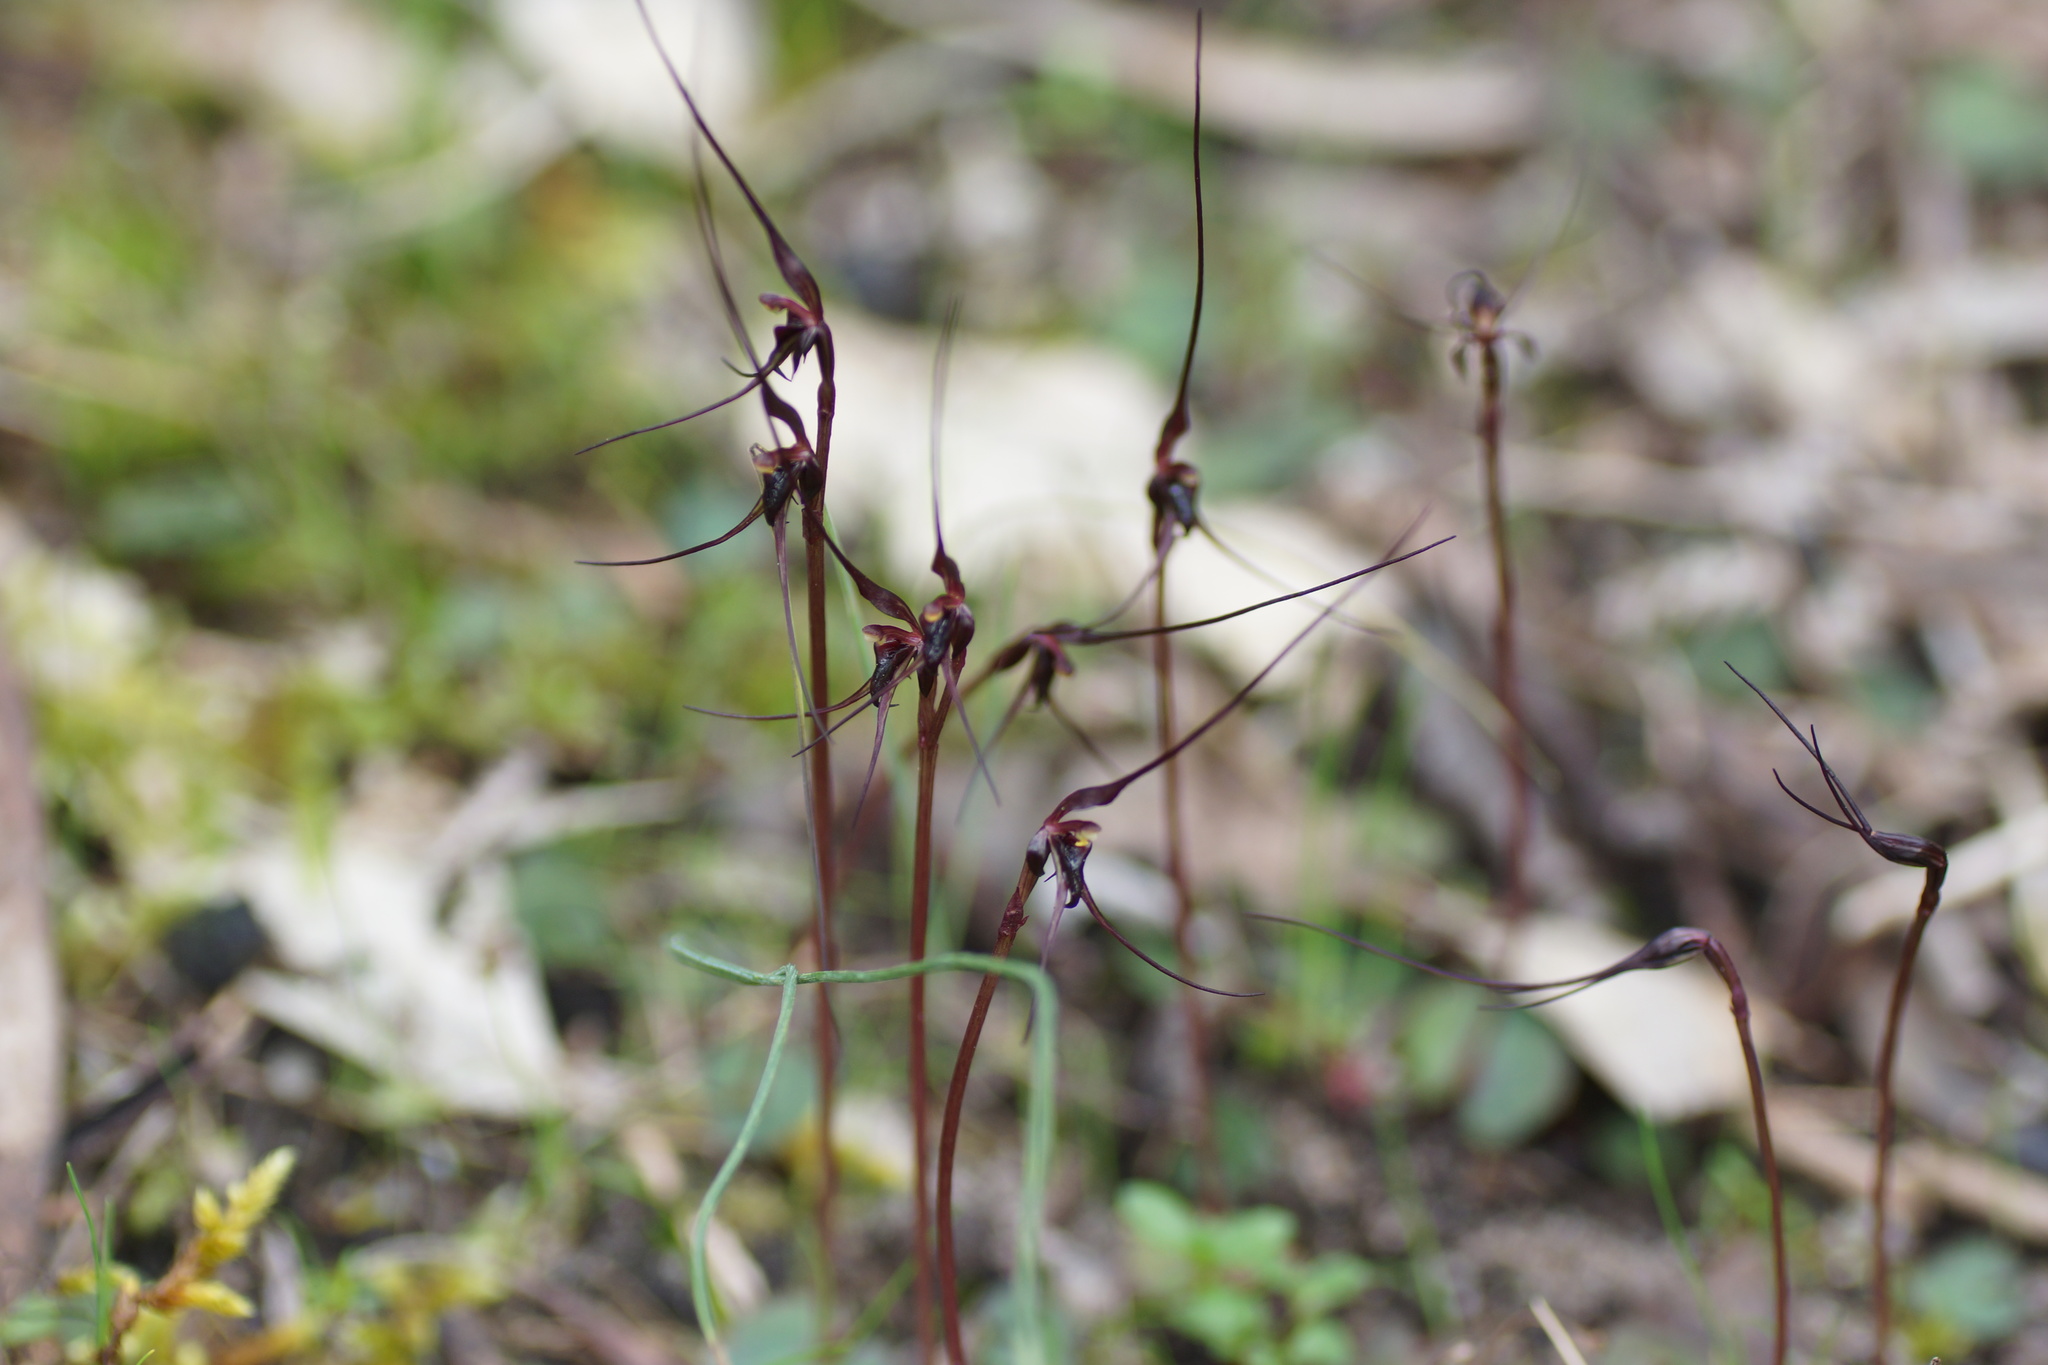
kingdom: Plantae
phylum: Tracheophyta
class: Liliopsida
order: Asparagales
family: Orchidaceae
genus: Acianthus
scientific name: Acianthus caudatus
